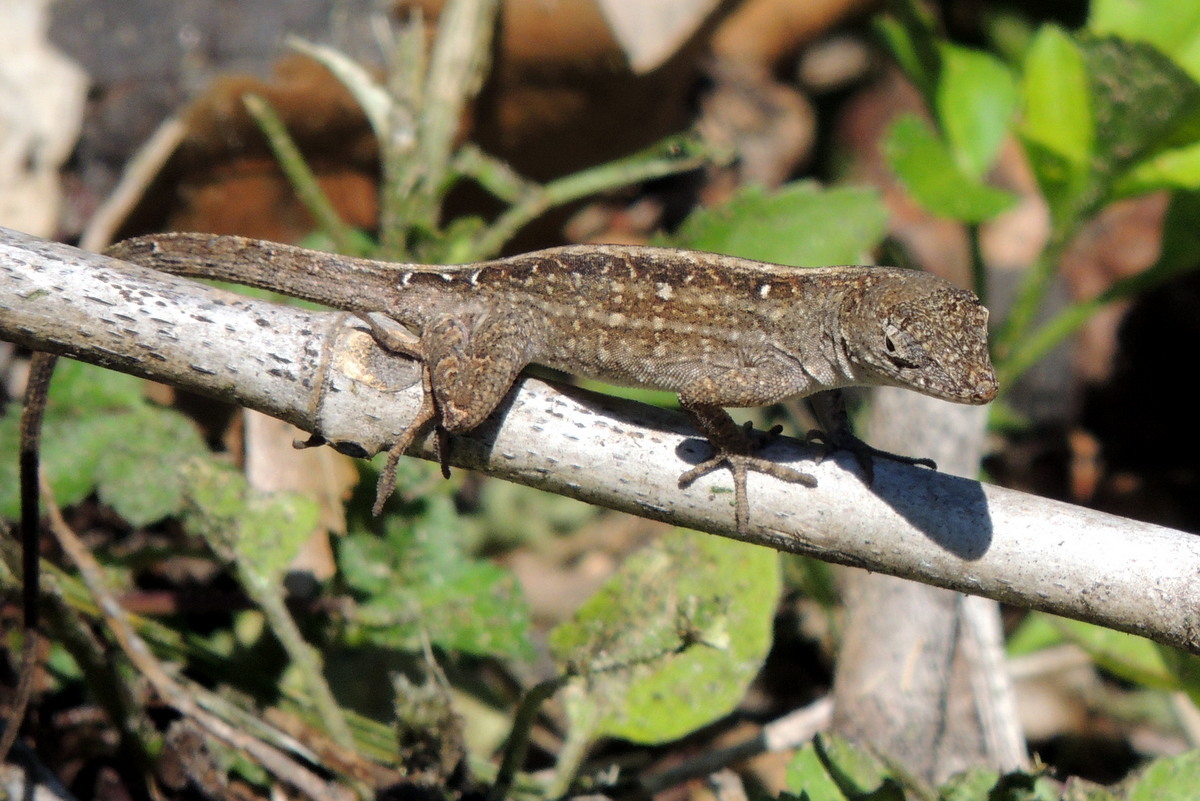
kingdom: Animalia
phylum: Chordata
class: Squamata
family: Dactyloidae
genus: Anolis
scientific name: Anolis sagrei
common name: Brown anole
